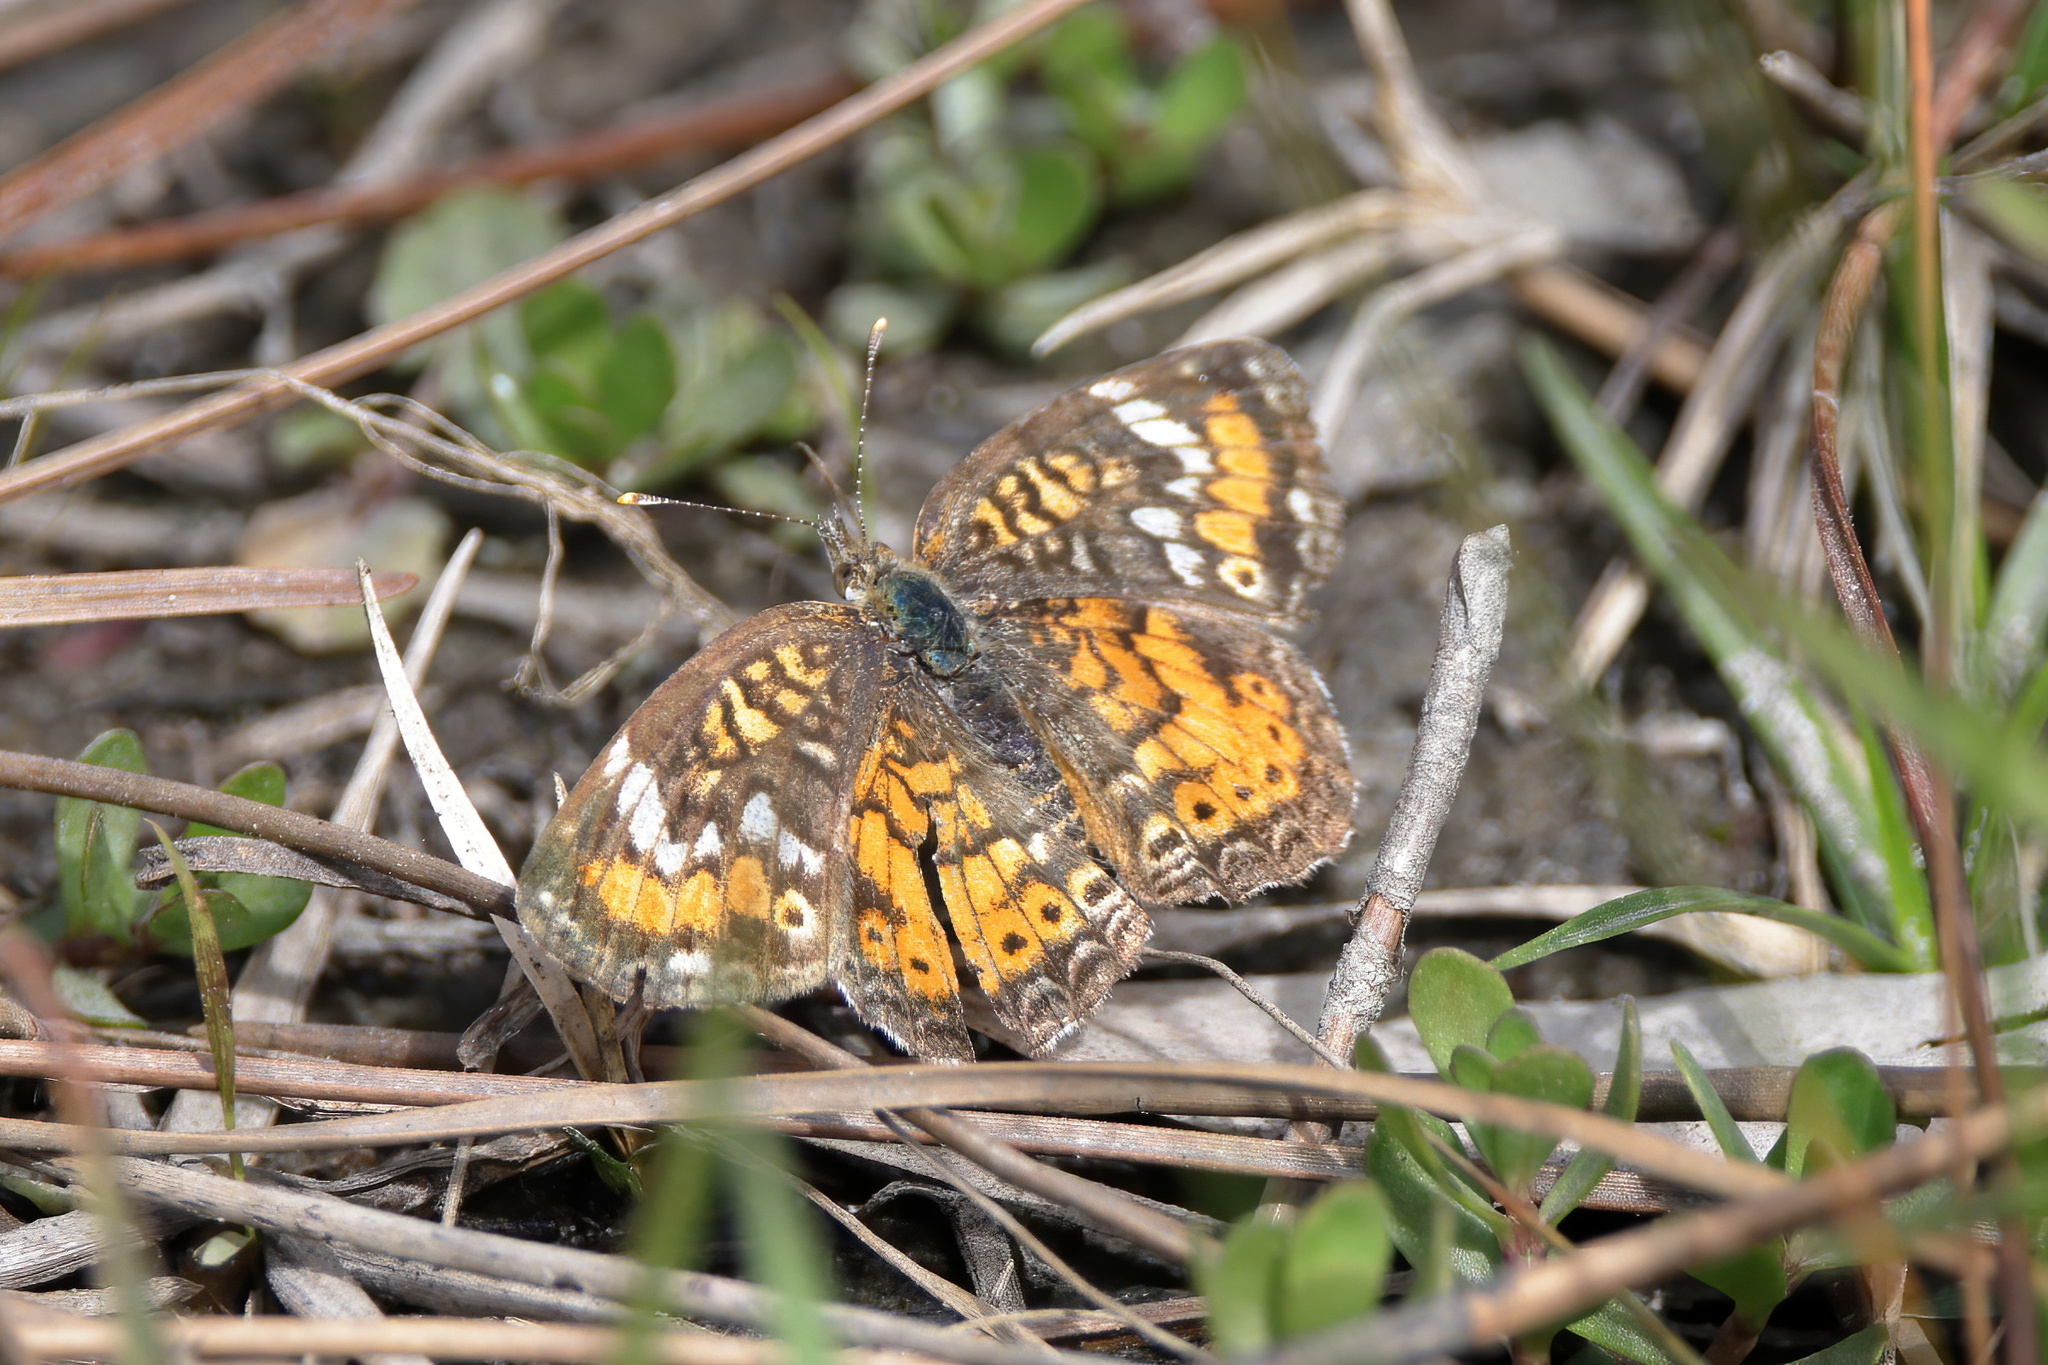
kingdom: Animalia
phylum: Arthropoda
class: Insecta
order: Lepidoptera
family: Nymphalidae
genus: Phyciodes
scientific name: Phyciodes phaon
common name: Phaon crescent
